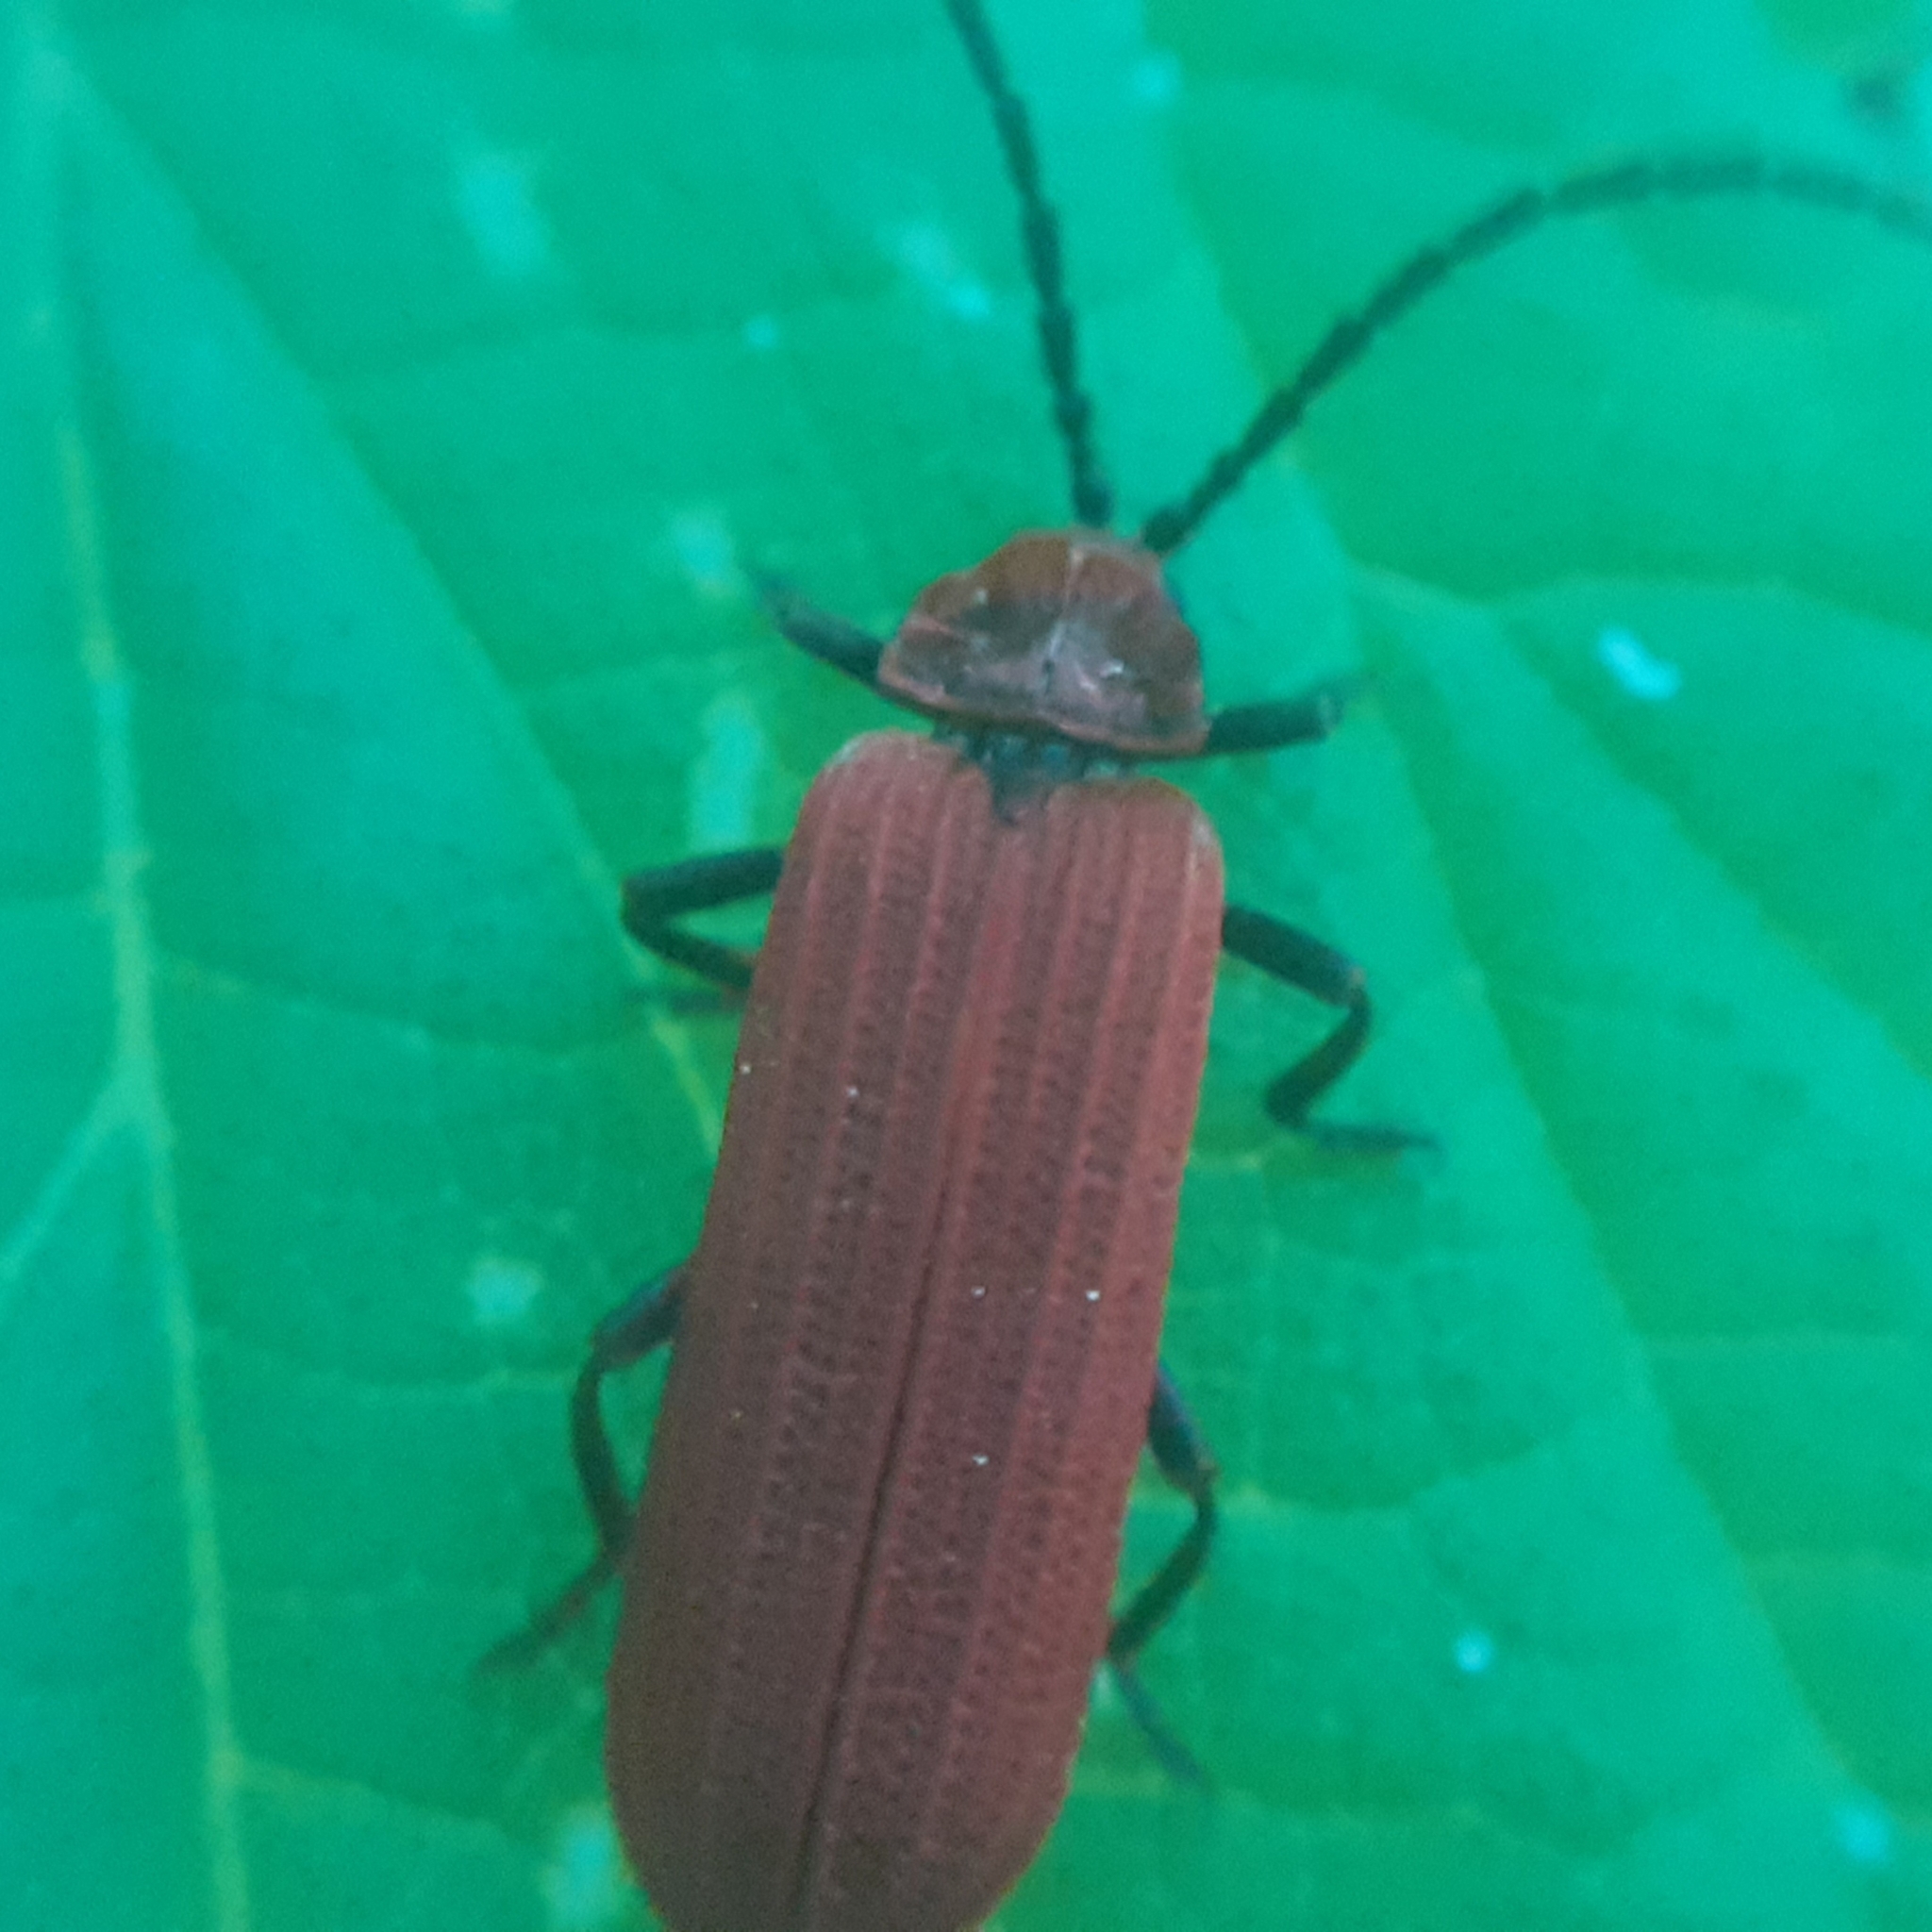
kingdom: Animalia
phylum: Arthropoda
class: Insecta
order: Coleoptera
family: Lycidae
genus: Lopheros
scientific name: Lopheros rubens
